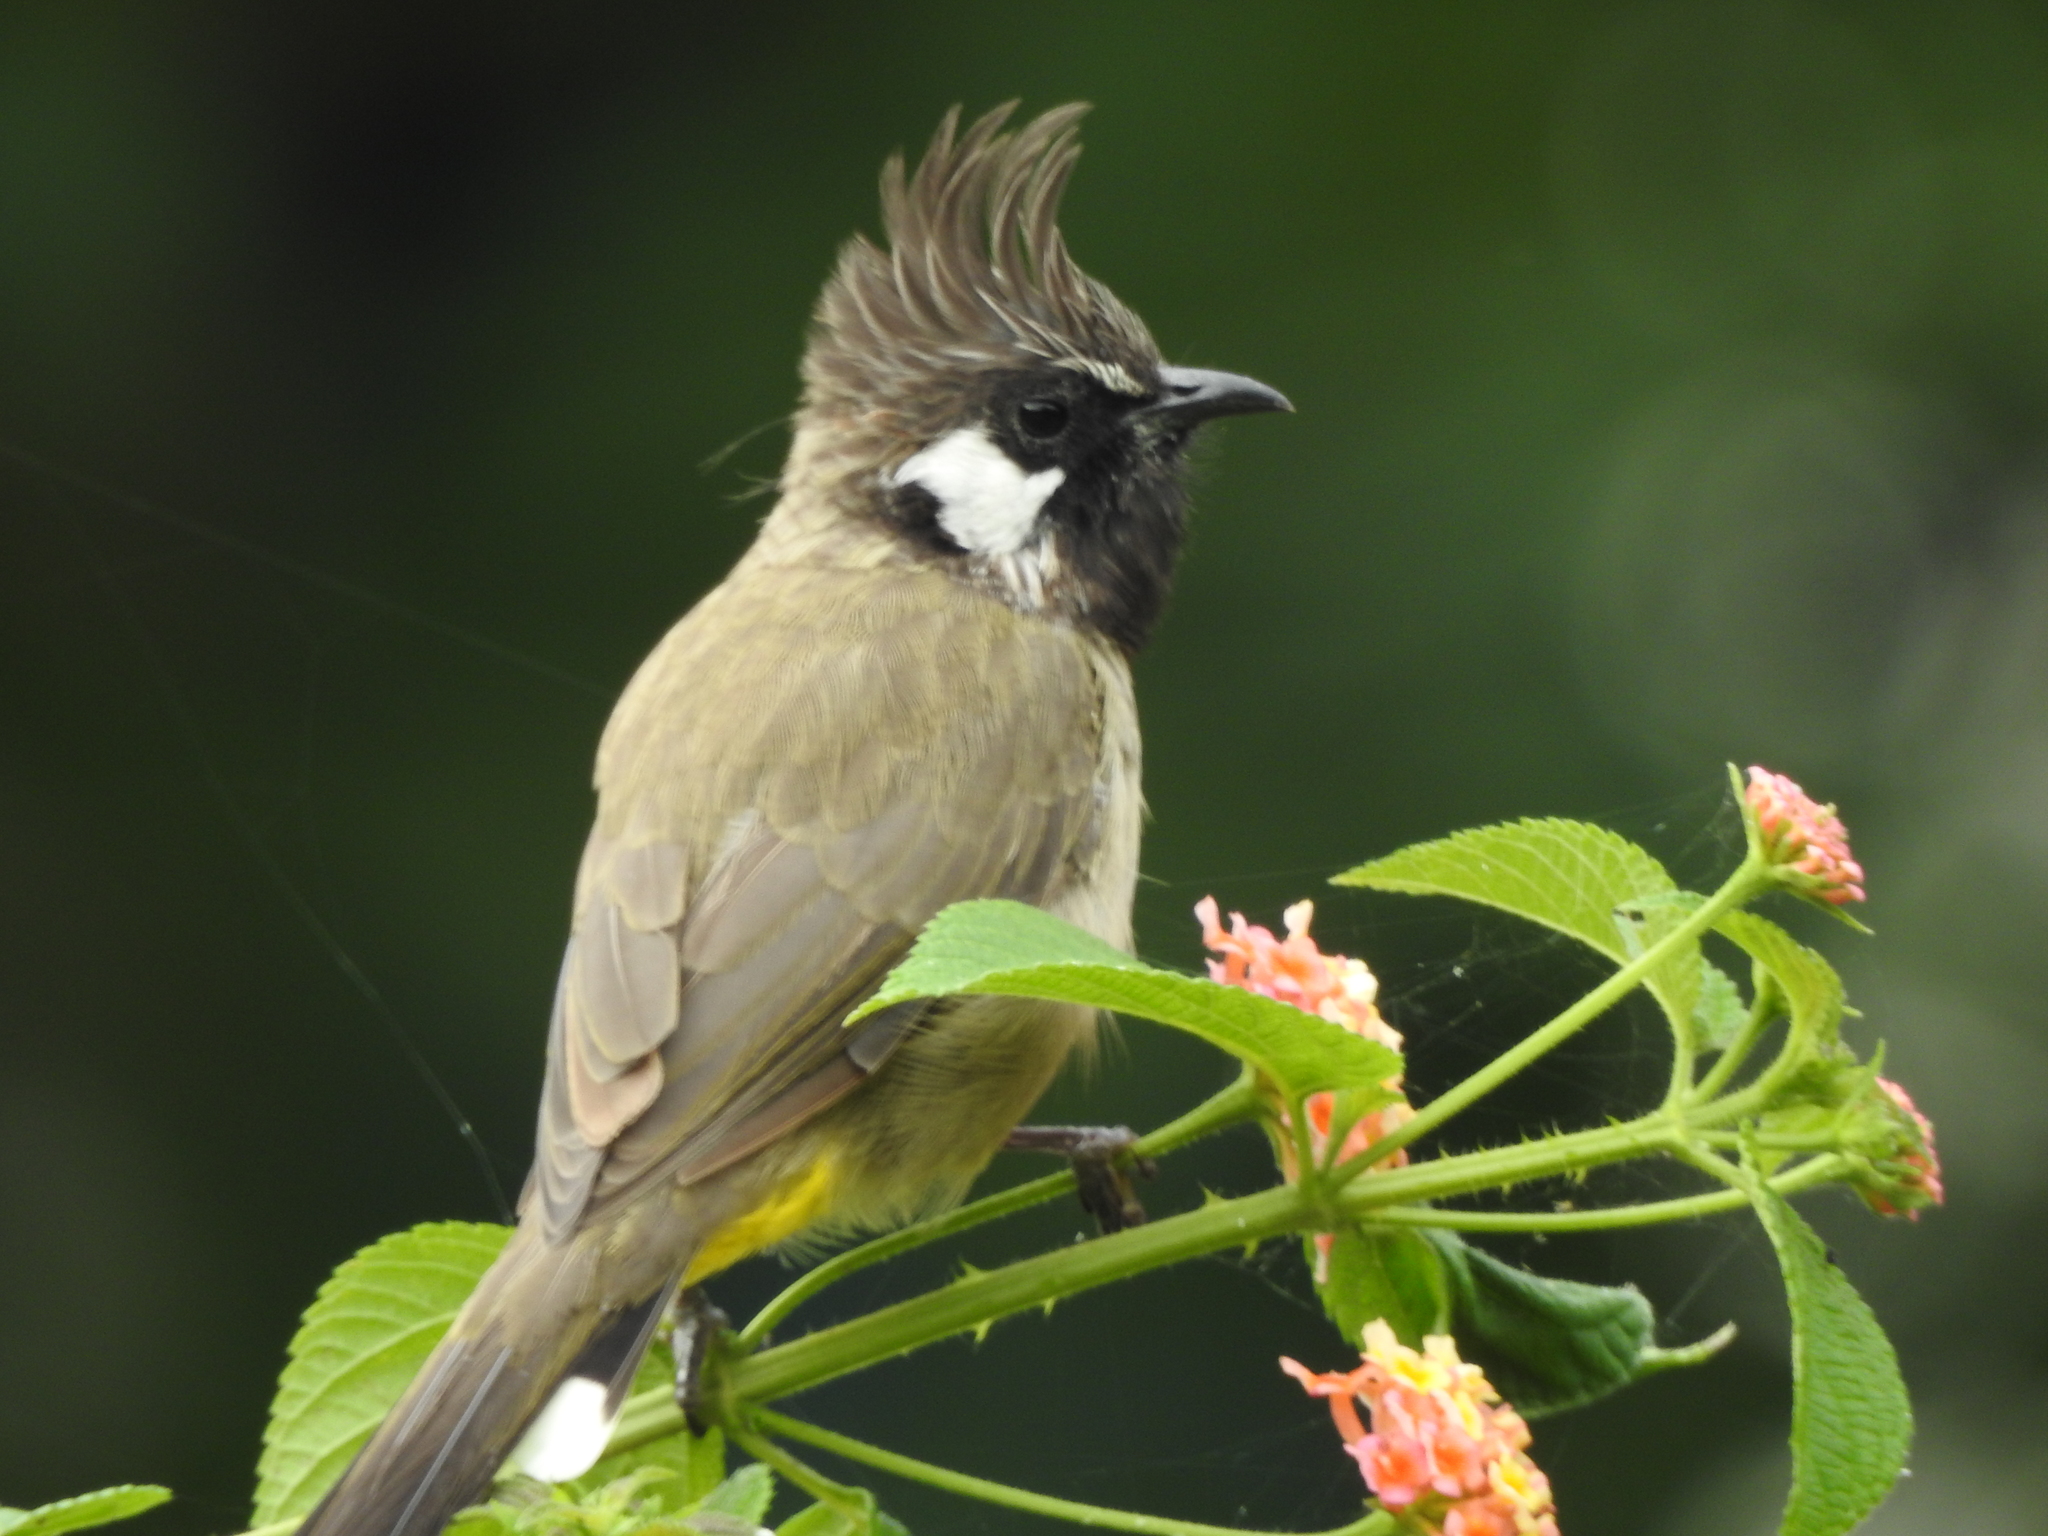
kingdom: Animalia
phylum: Chordata
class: Aves
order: Passeriformes
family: Pycnonotidae
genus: Pycnonotus
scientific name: Pycnonotus leucogenys
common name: Himalayan bulbul
